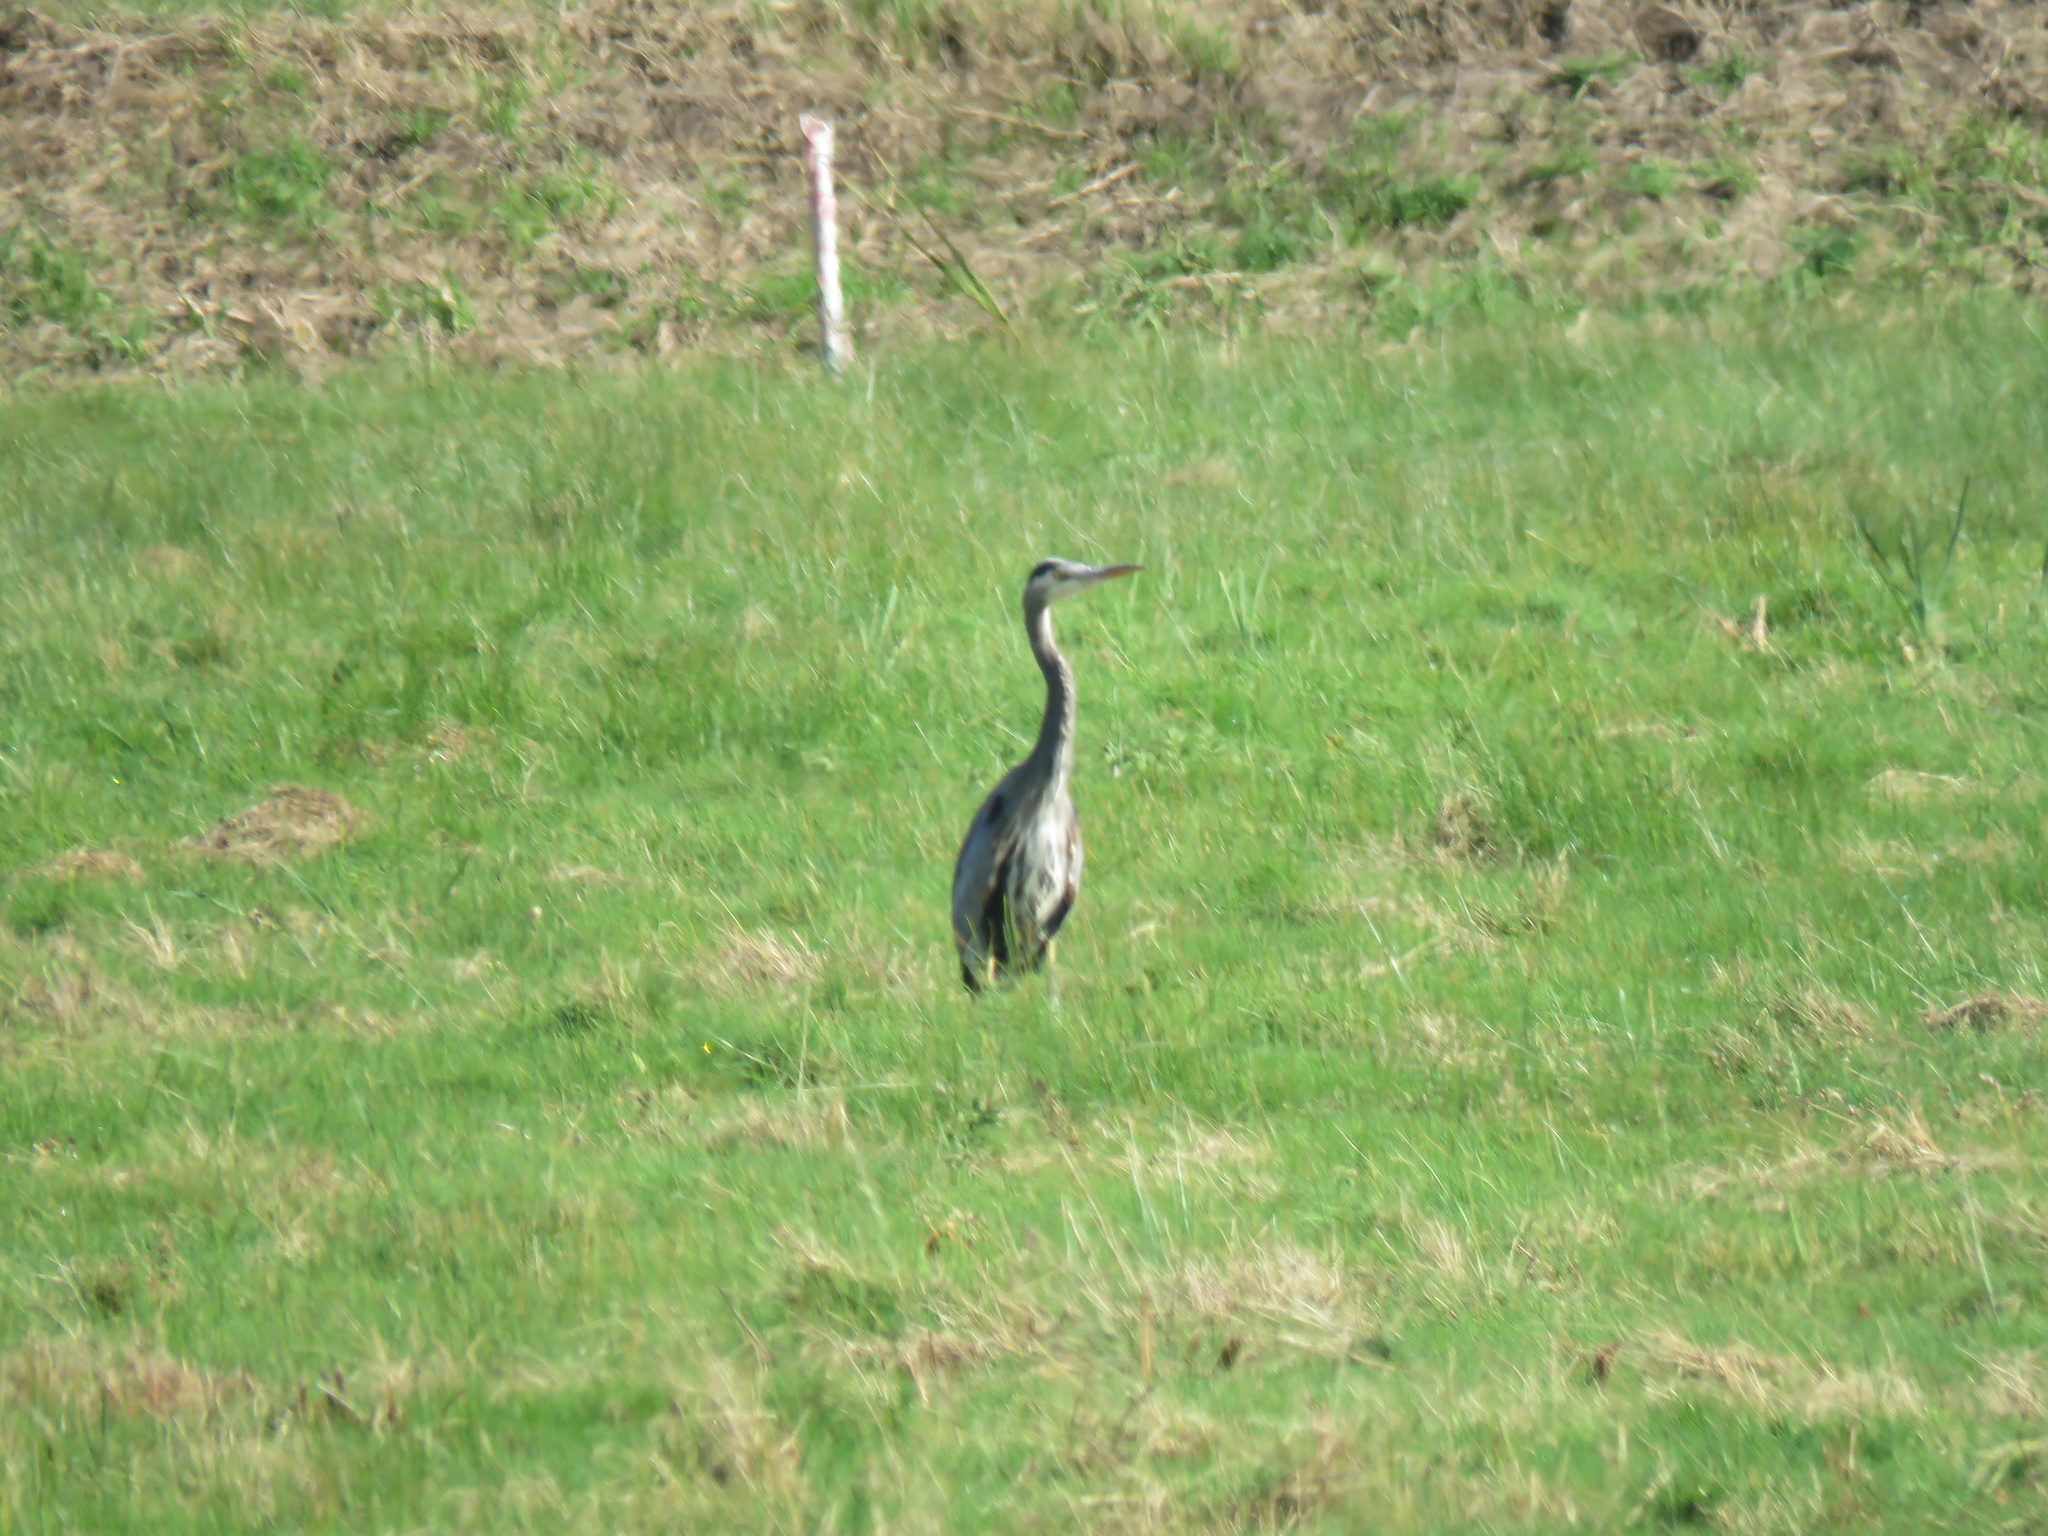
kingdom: Animalia
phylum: Chordata
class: Aves
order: Pelecaniformes
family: Ardeidae
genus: Ardea
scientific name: Ardea herodias
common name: Great blue heron
